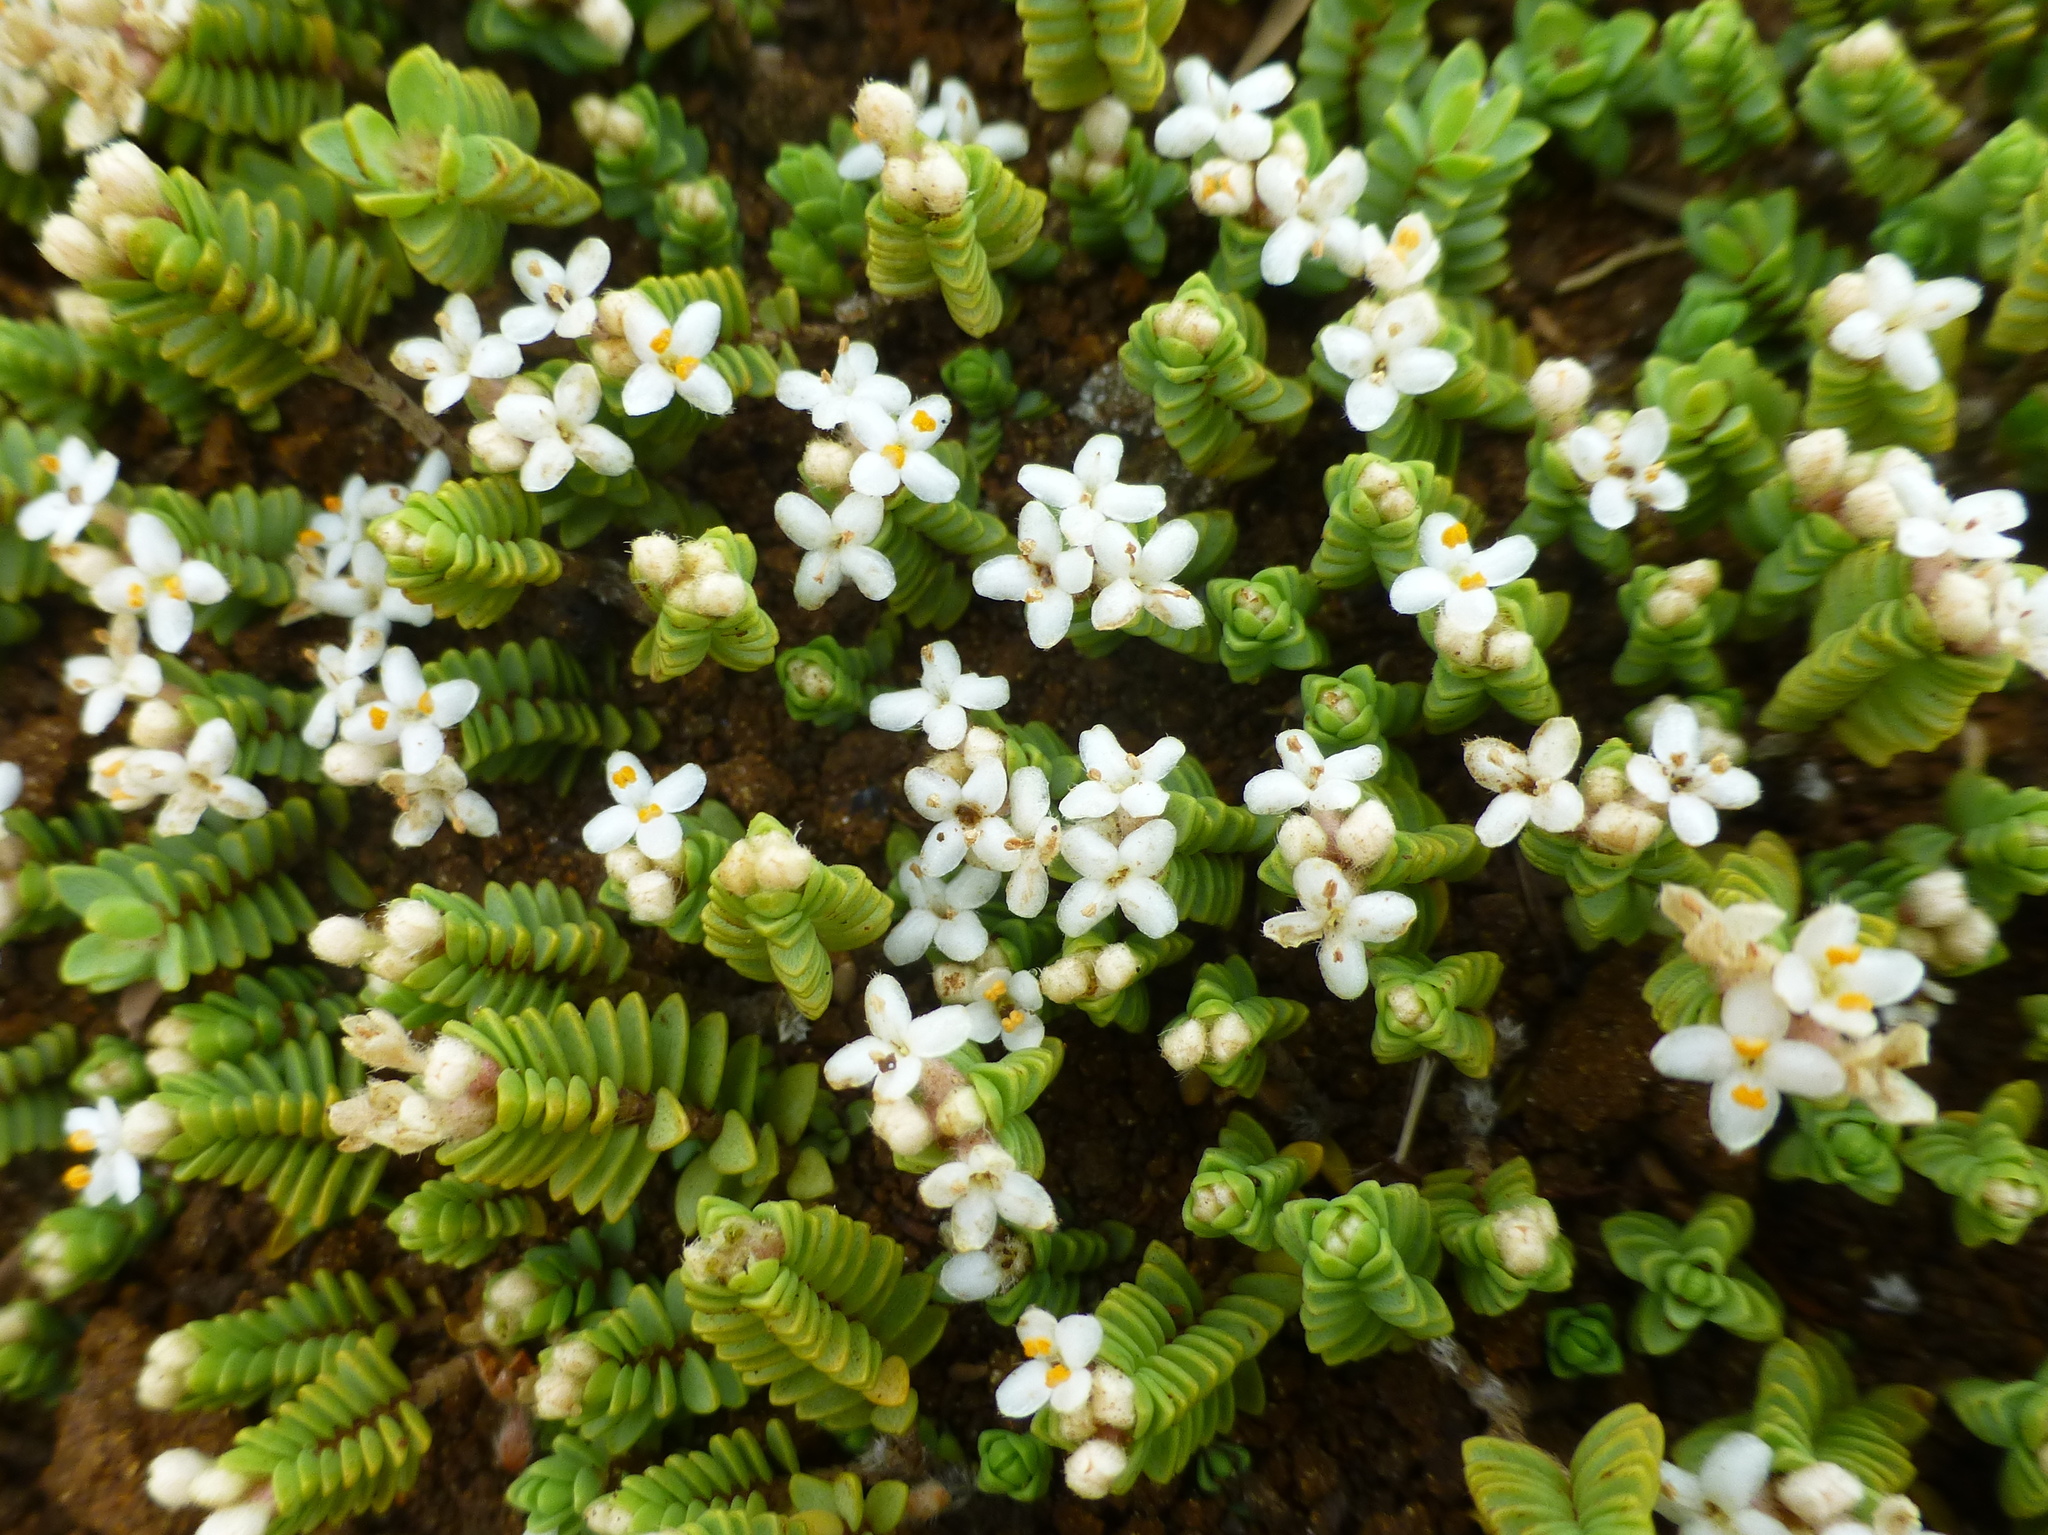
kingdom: Plantae
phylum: Tracheophyta
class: Magnoliopsida
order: Malvales
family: Thymelaeaceae
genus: Pimelea
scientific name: Pimelea prostrata
